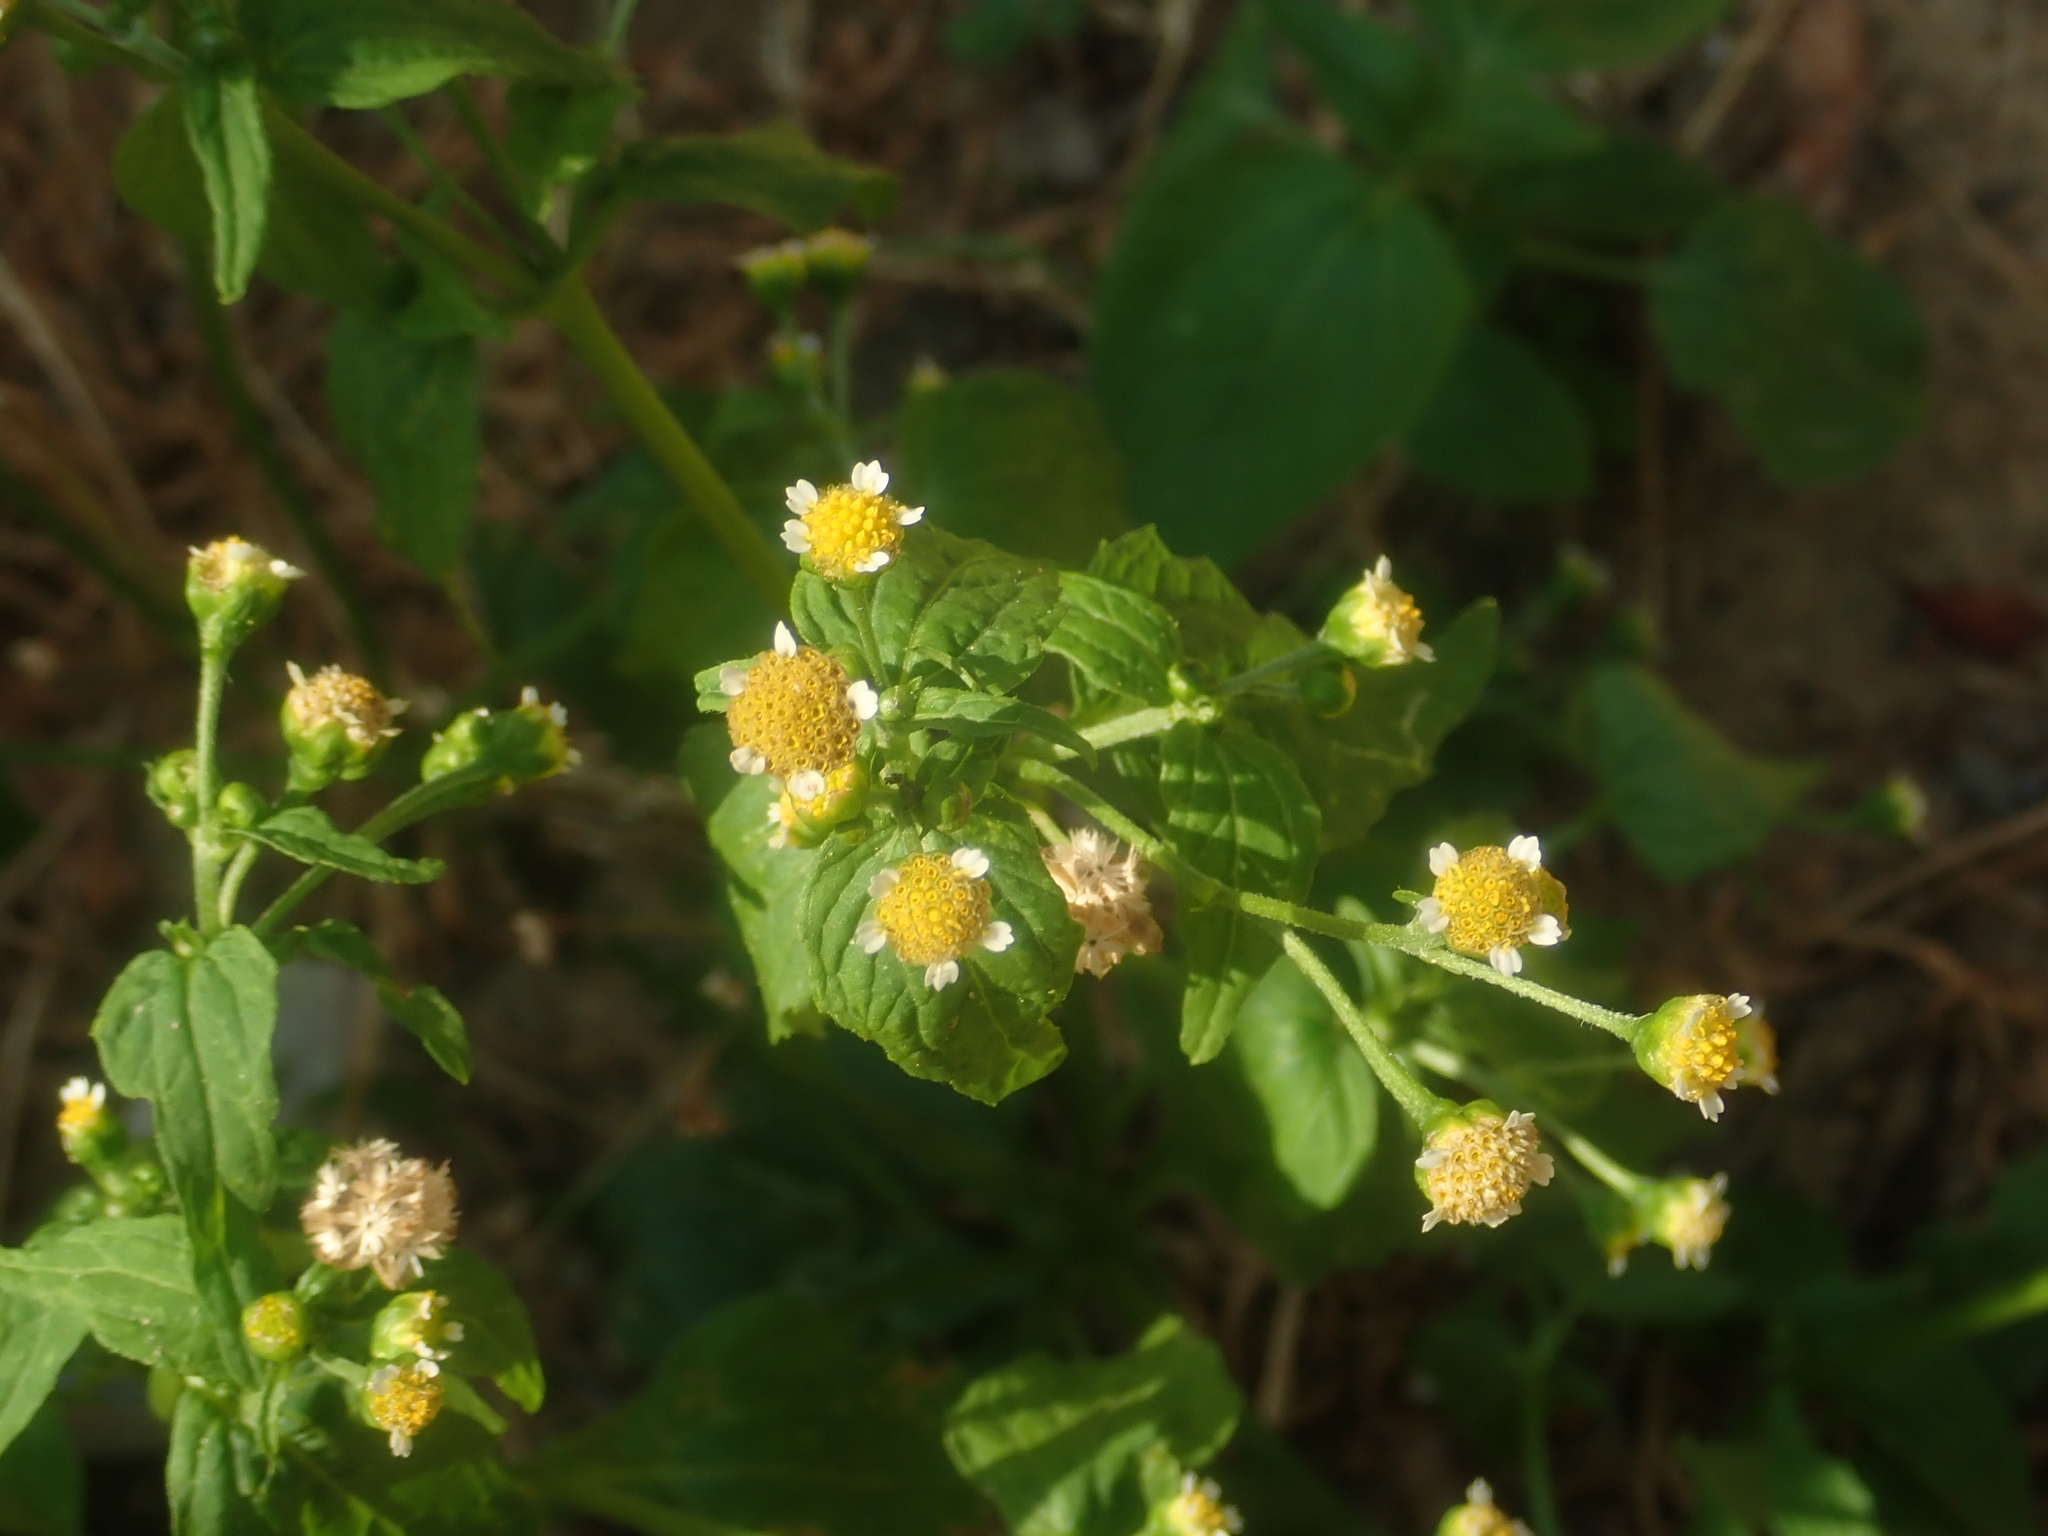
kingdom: Plantae
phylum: Tracheophyta
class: Magnoliopsida
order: Asterales
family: Asteraceae
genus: Galinsoga
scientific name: Galinsoga parviflora
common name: Gallant soldier
